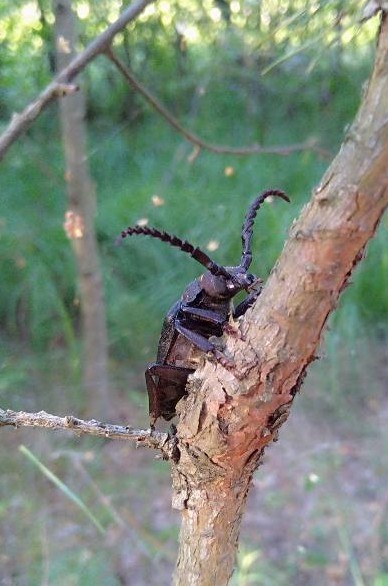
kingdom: Animalia
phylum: Arthropoda
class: Insecta
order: Coleoptera
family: Cerambycidae
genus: Prionus
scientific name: Prionus coriarius
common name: Tanner beetle
